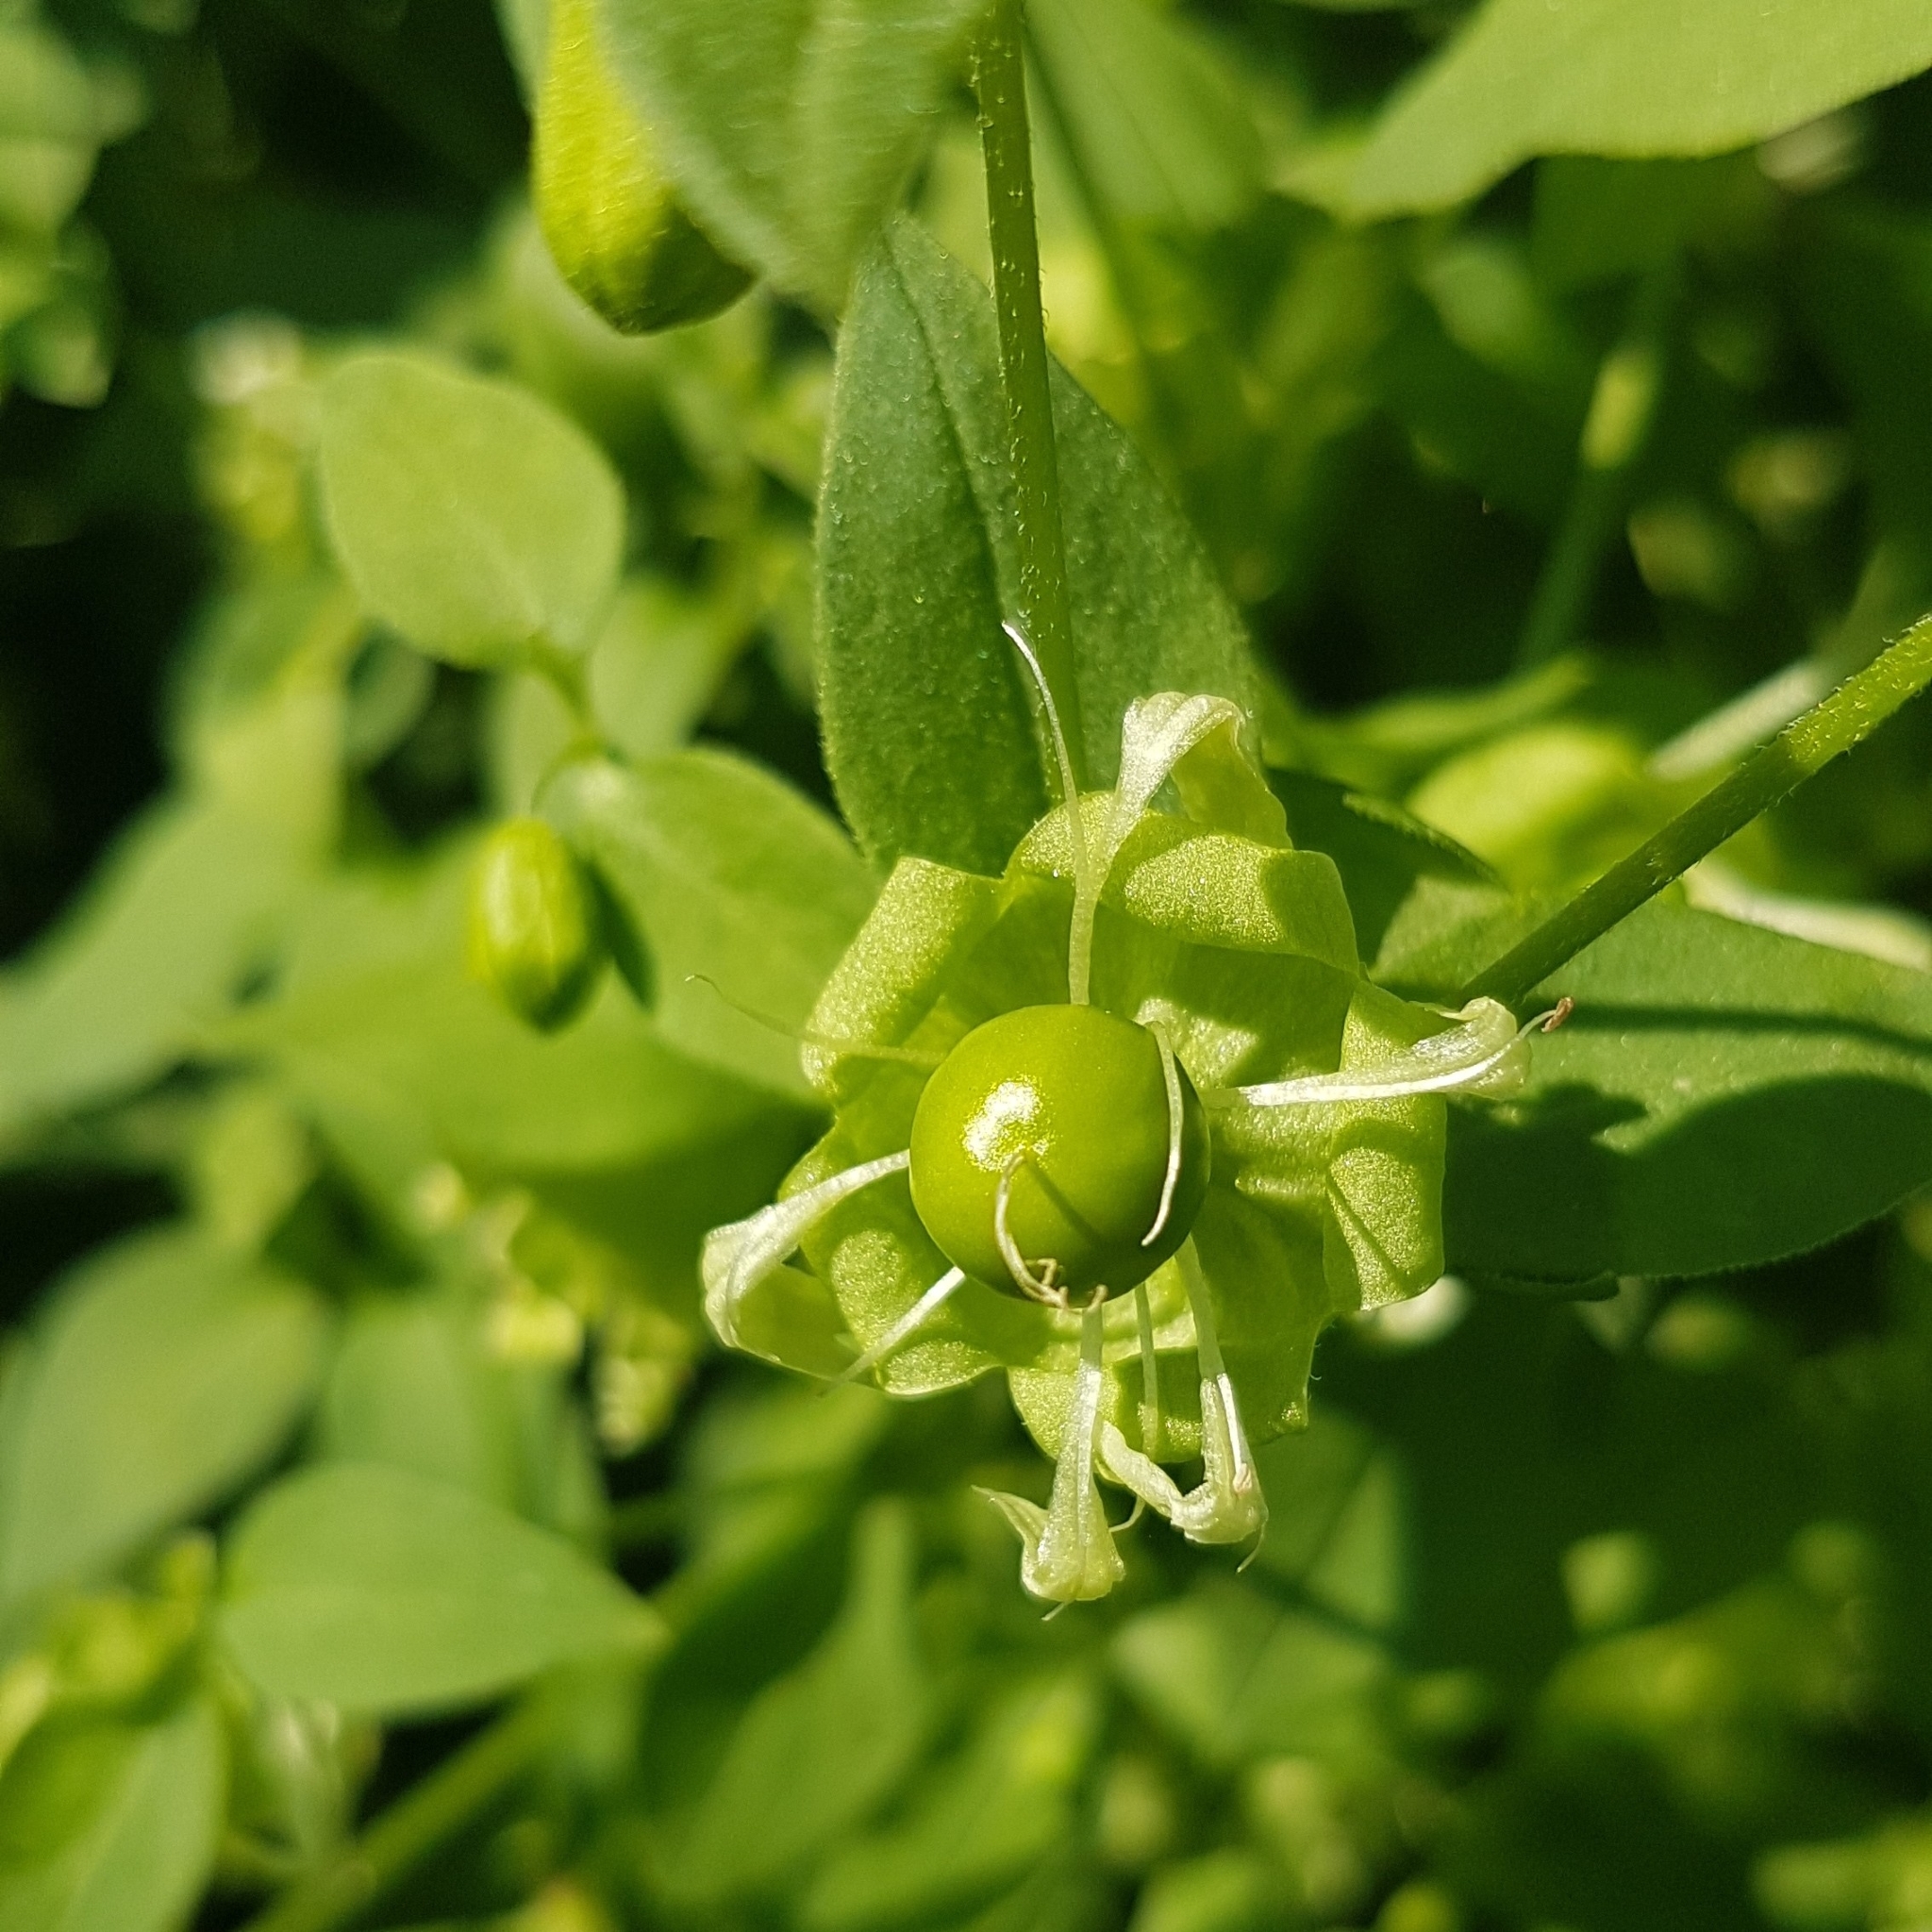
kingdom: Plantae
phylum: Tracheophyta
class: Magnoliopsida
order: Caryophyllales
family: Caryophyllaceae
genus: Silene
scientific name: Silene baccifera
